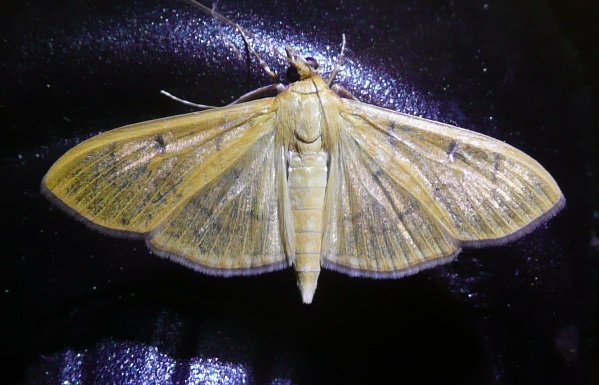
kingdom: Animalia
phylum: Arthropoda
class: Insecta
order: Lepidoptera
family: Crambidae
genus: Condylorrhiza
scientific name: Condylorrhiza vestigialis
